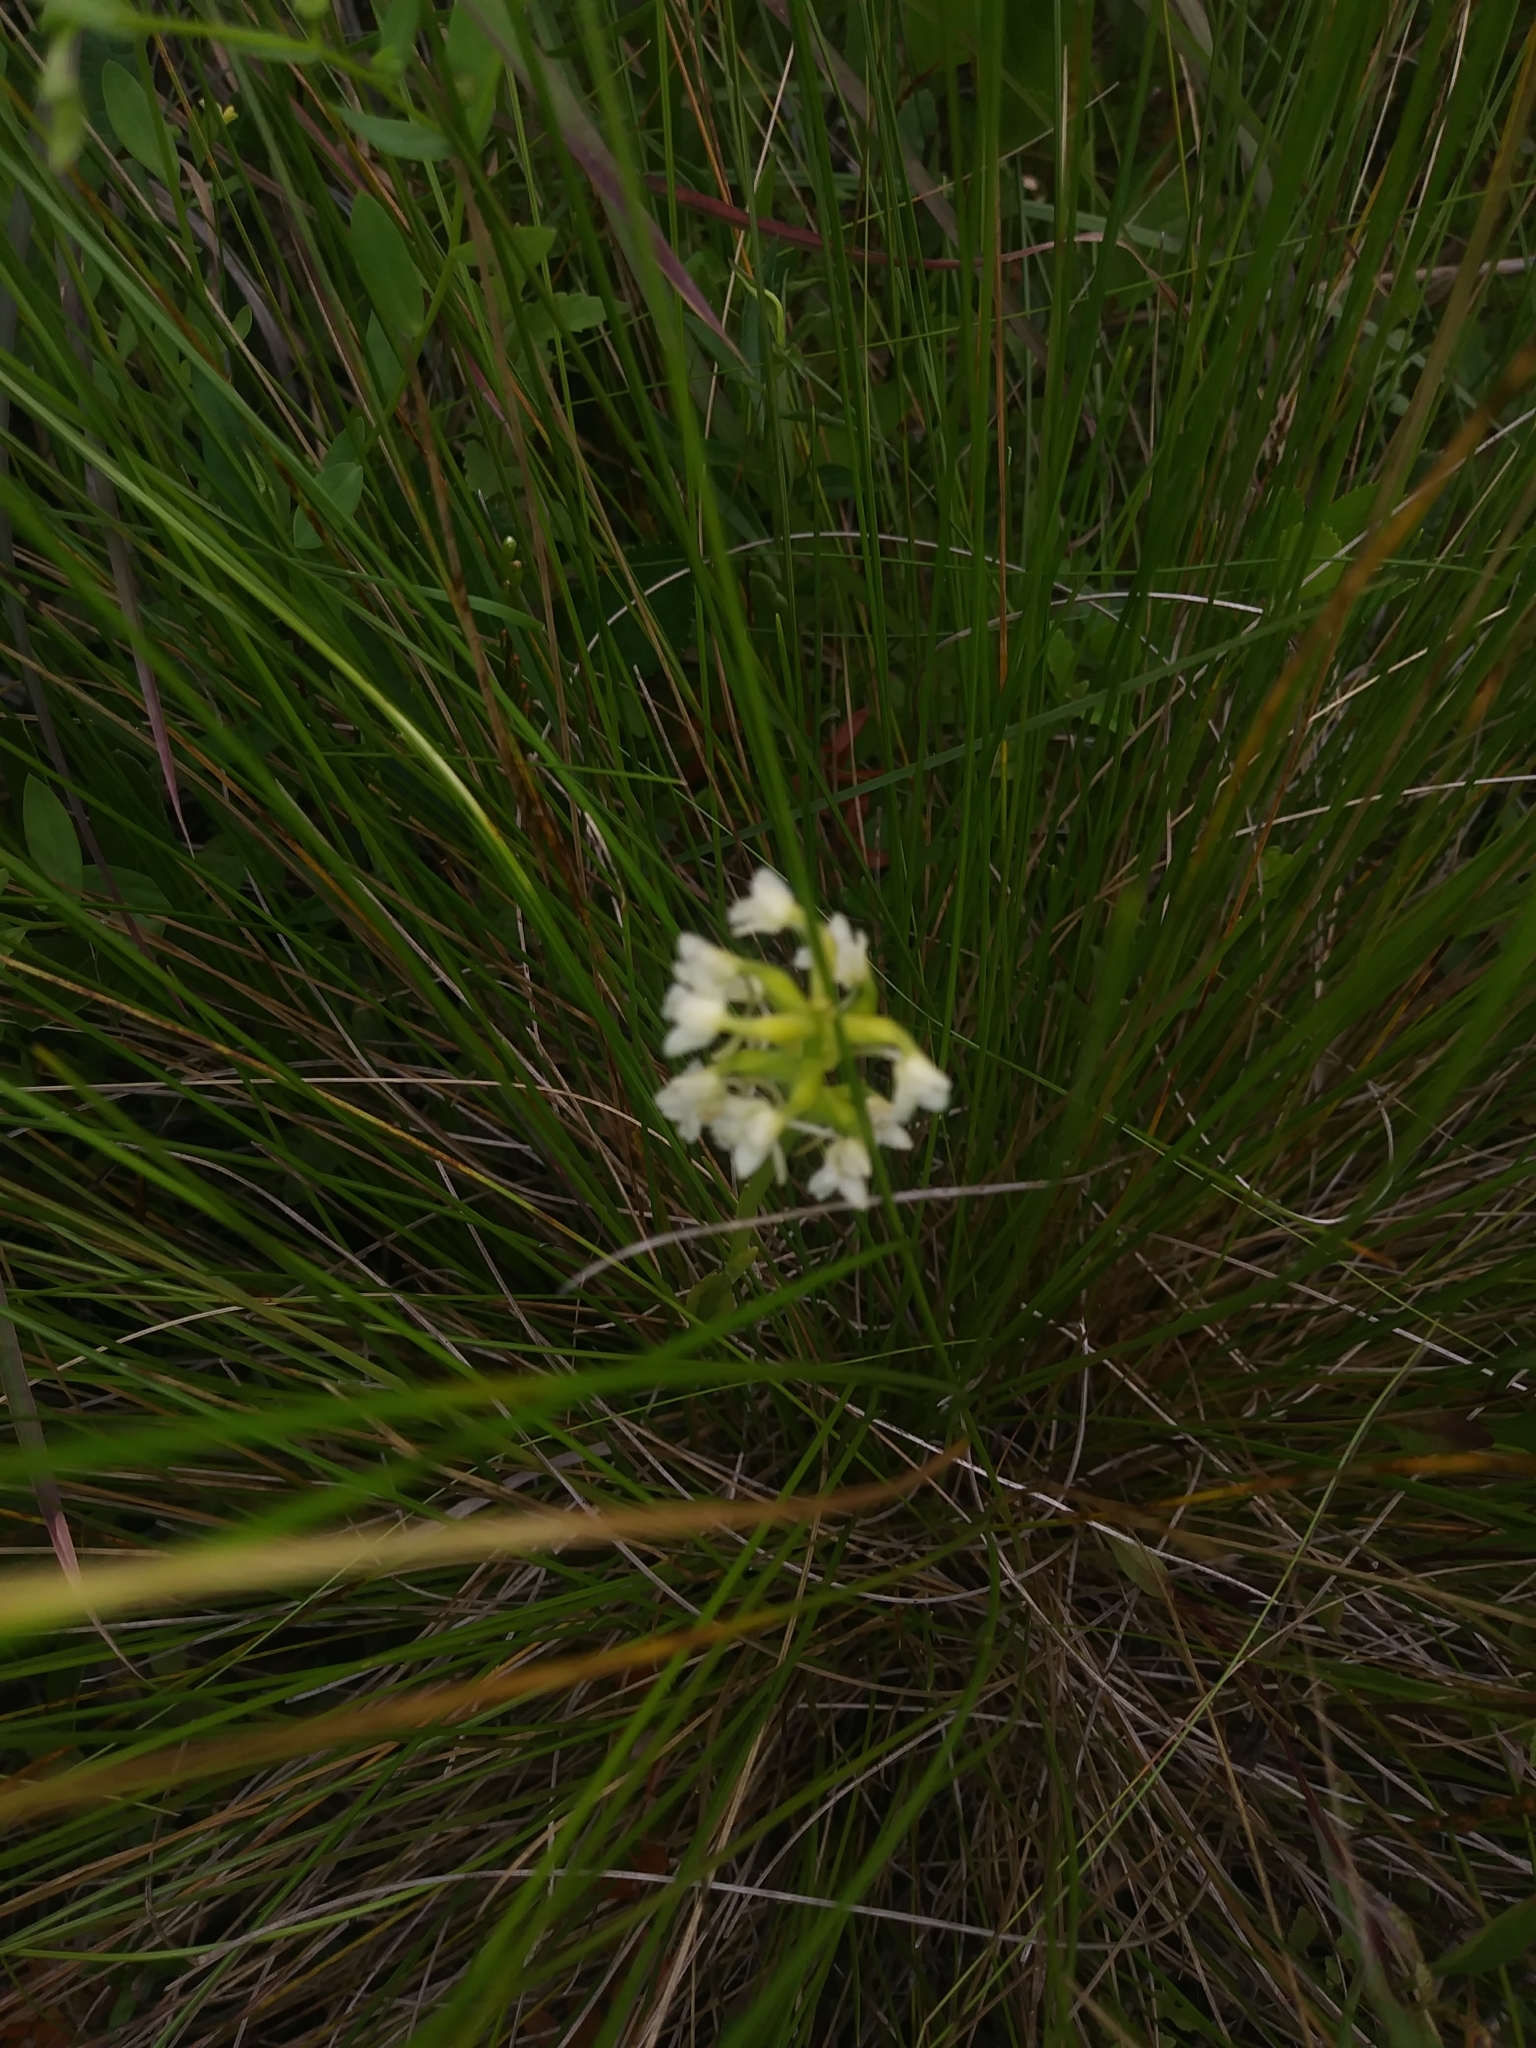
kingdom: Plantae
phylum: Tracheophyta
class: Liliopsida
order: Asparagales
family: Orchidaceae
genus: Platanthera
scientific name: Platanthera clavellata
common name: Club-spur orchid
